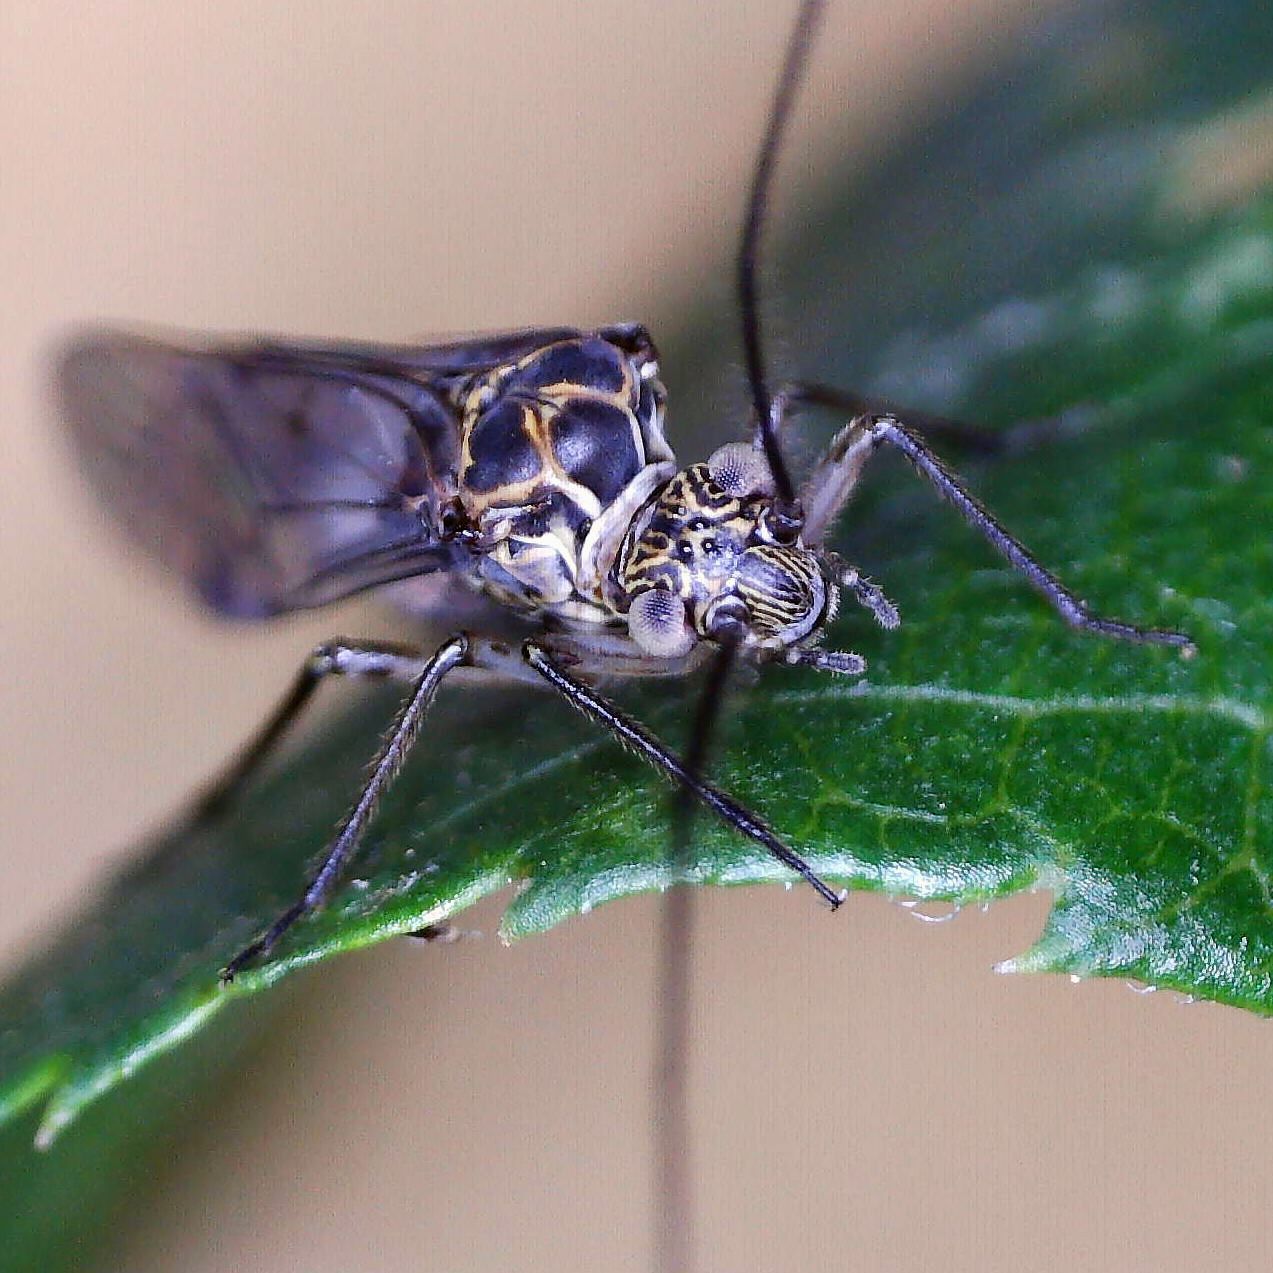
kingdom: Animalia
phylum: Arthropoda
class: Insecta
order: Psocodea
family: Psocidae
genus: Psococerastis
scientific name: Psococerastis gibbosa
